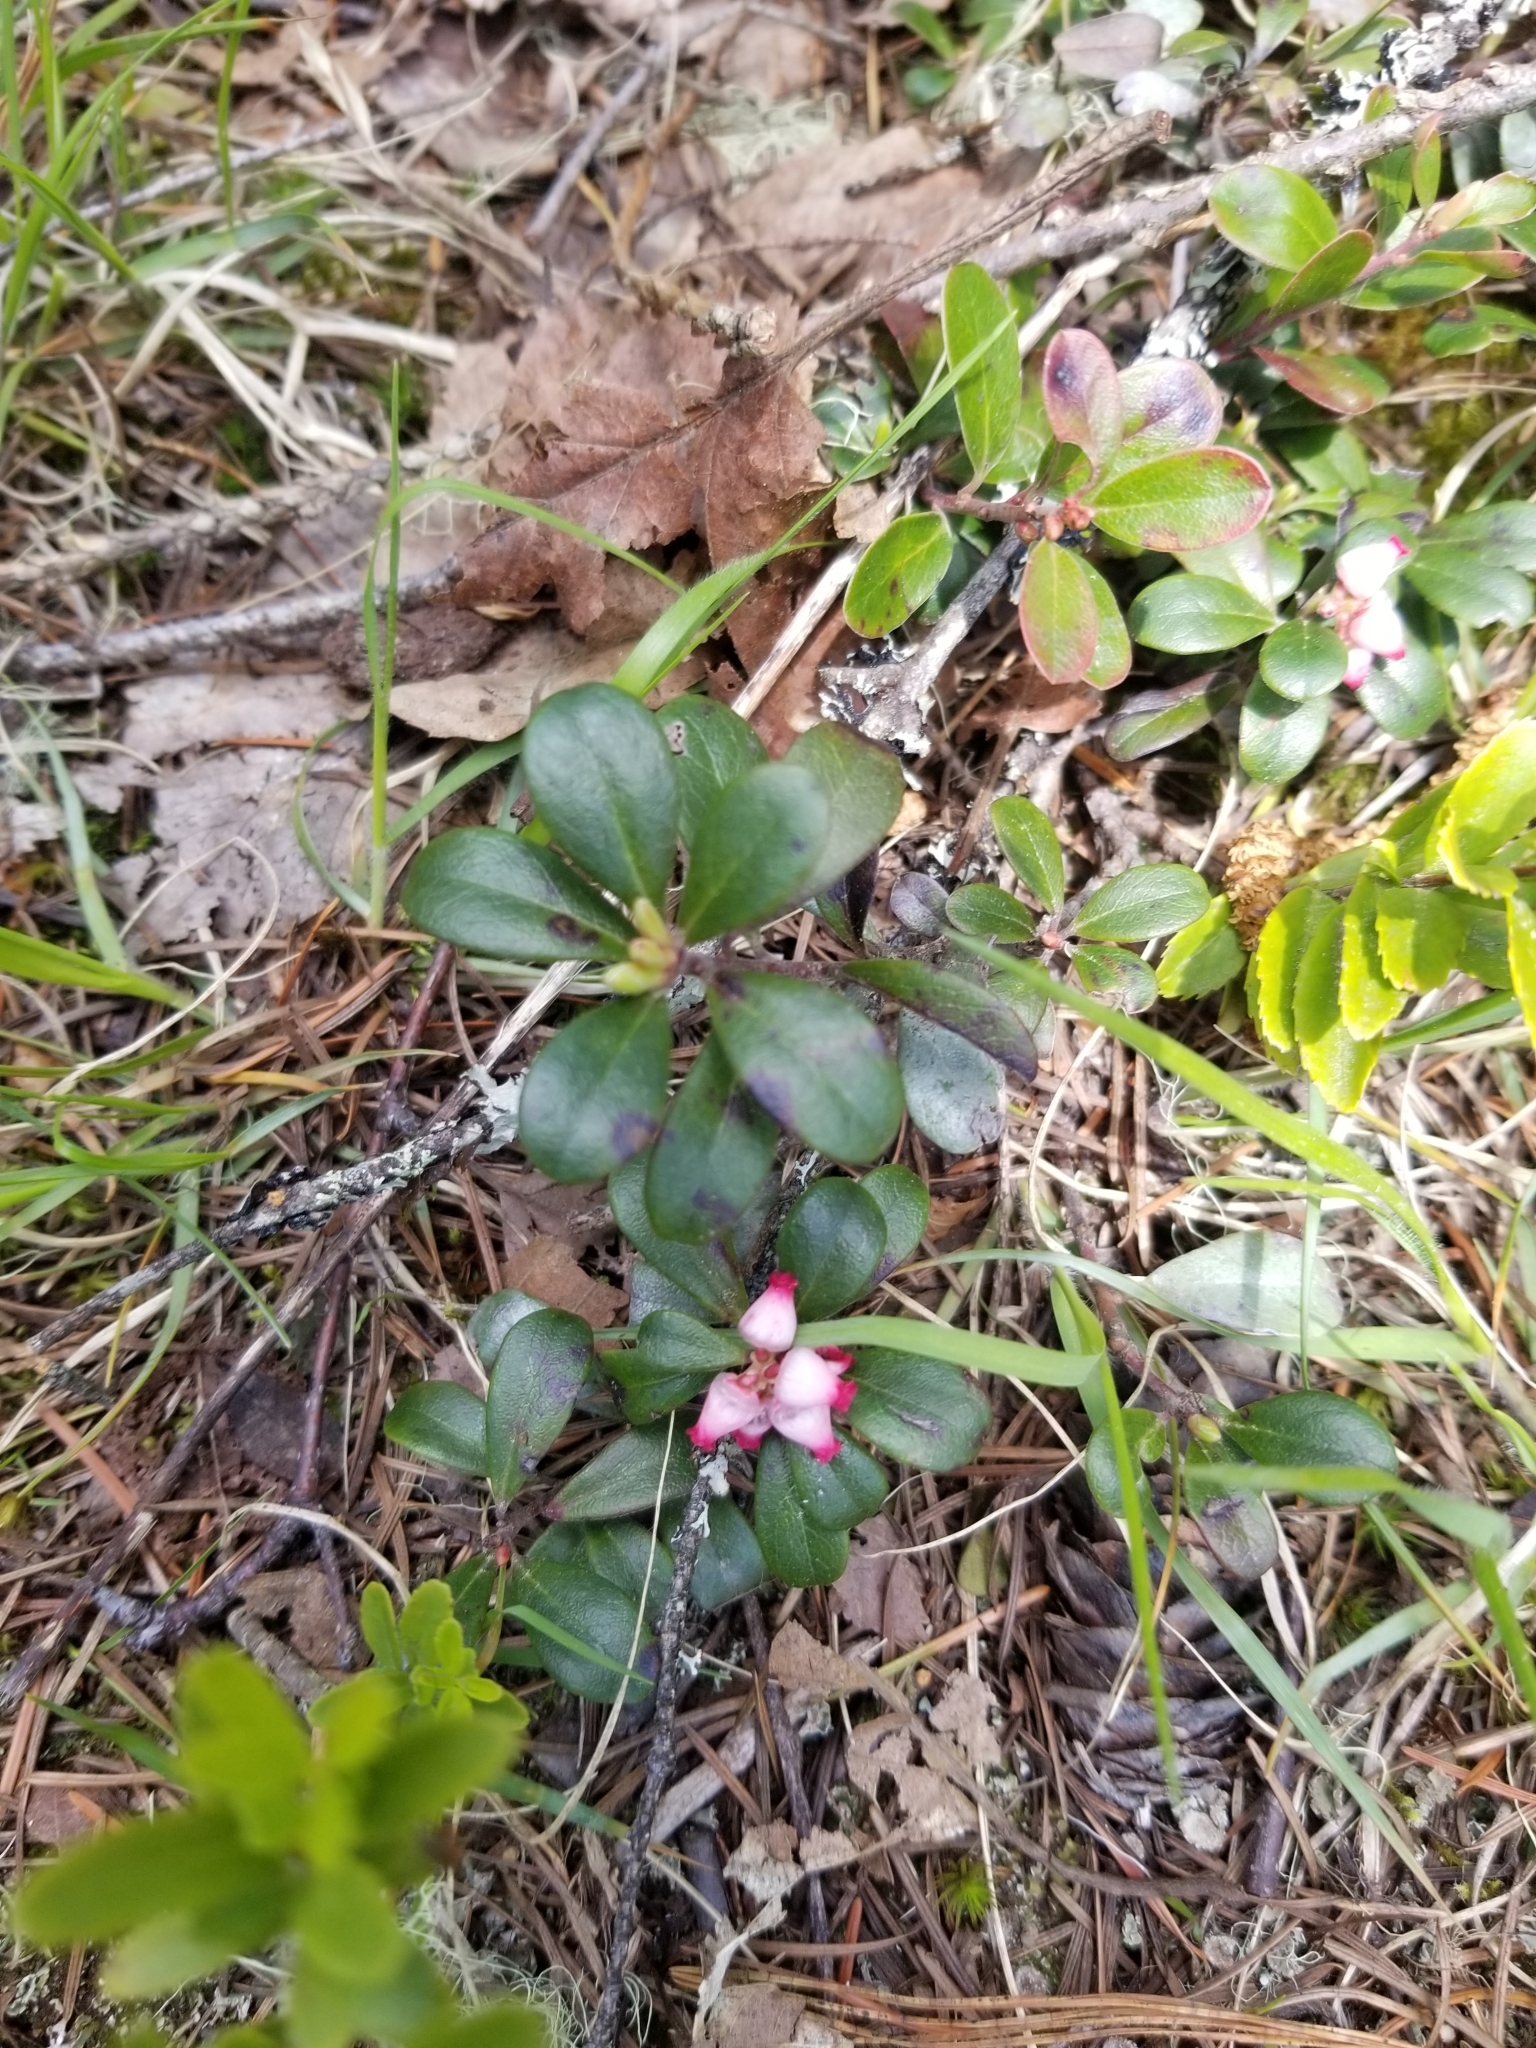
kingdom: Plantae
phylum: Tracheophyta
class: Magnoliopsida
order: Ericales
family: Ericaceae
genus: Arctostaphylos
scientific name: Arctostaphylos uva-ursi
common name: Bearberry
